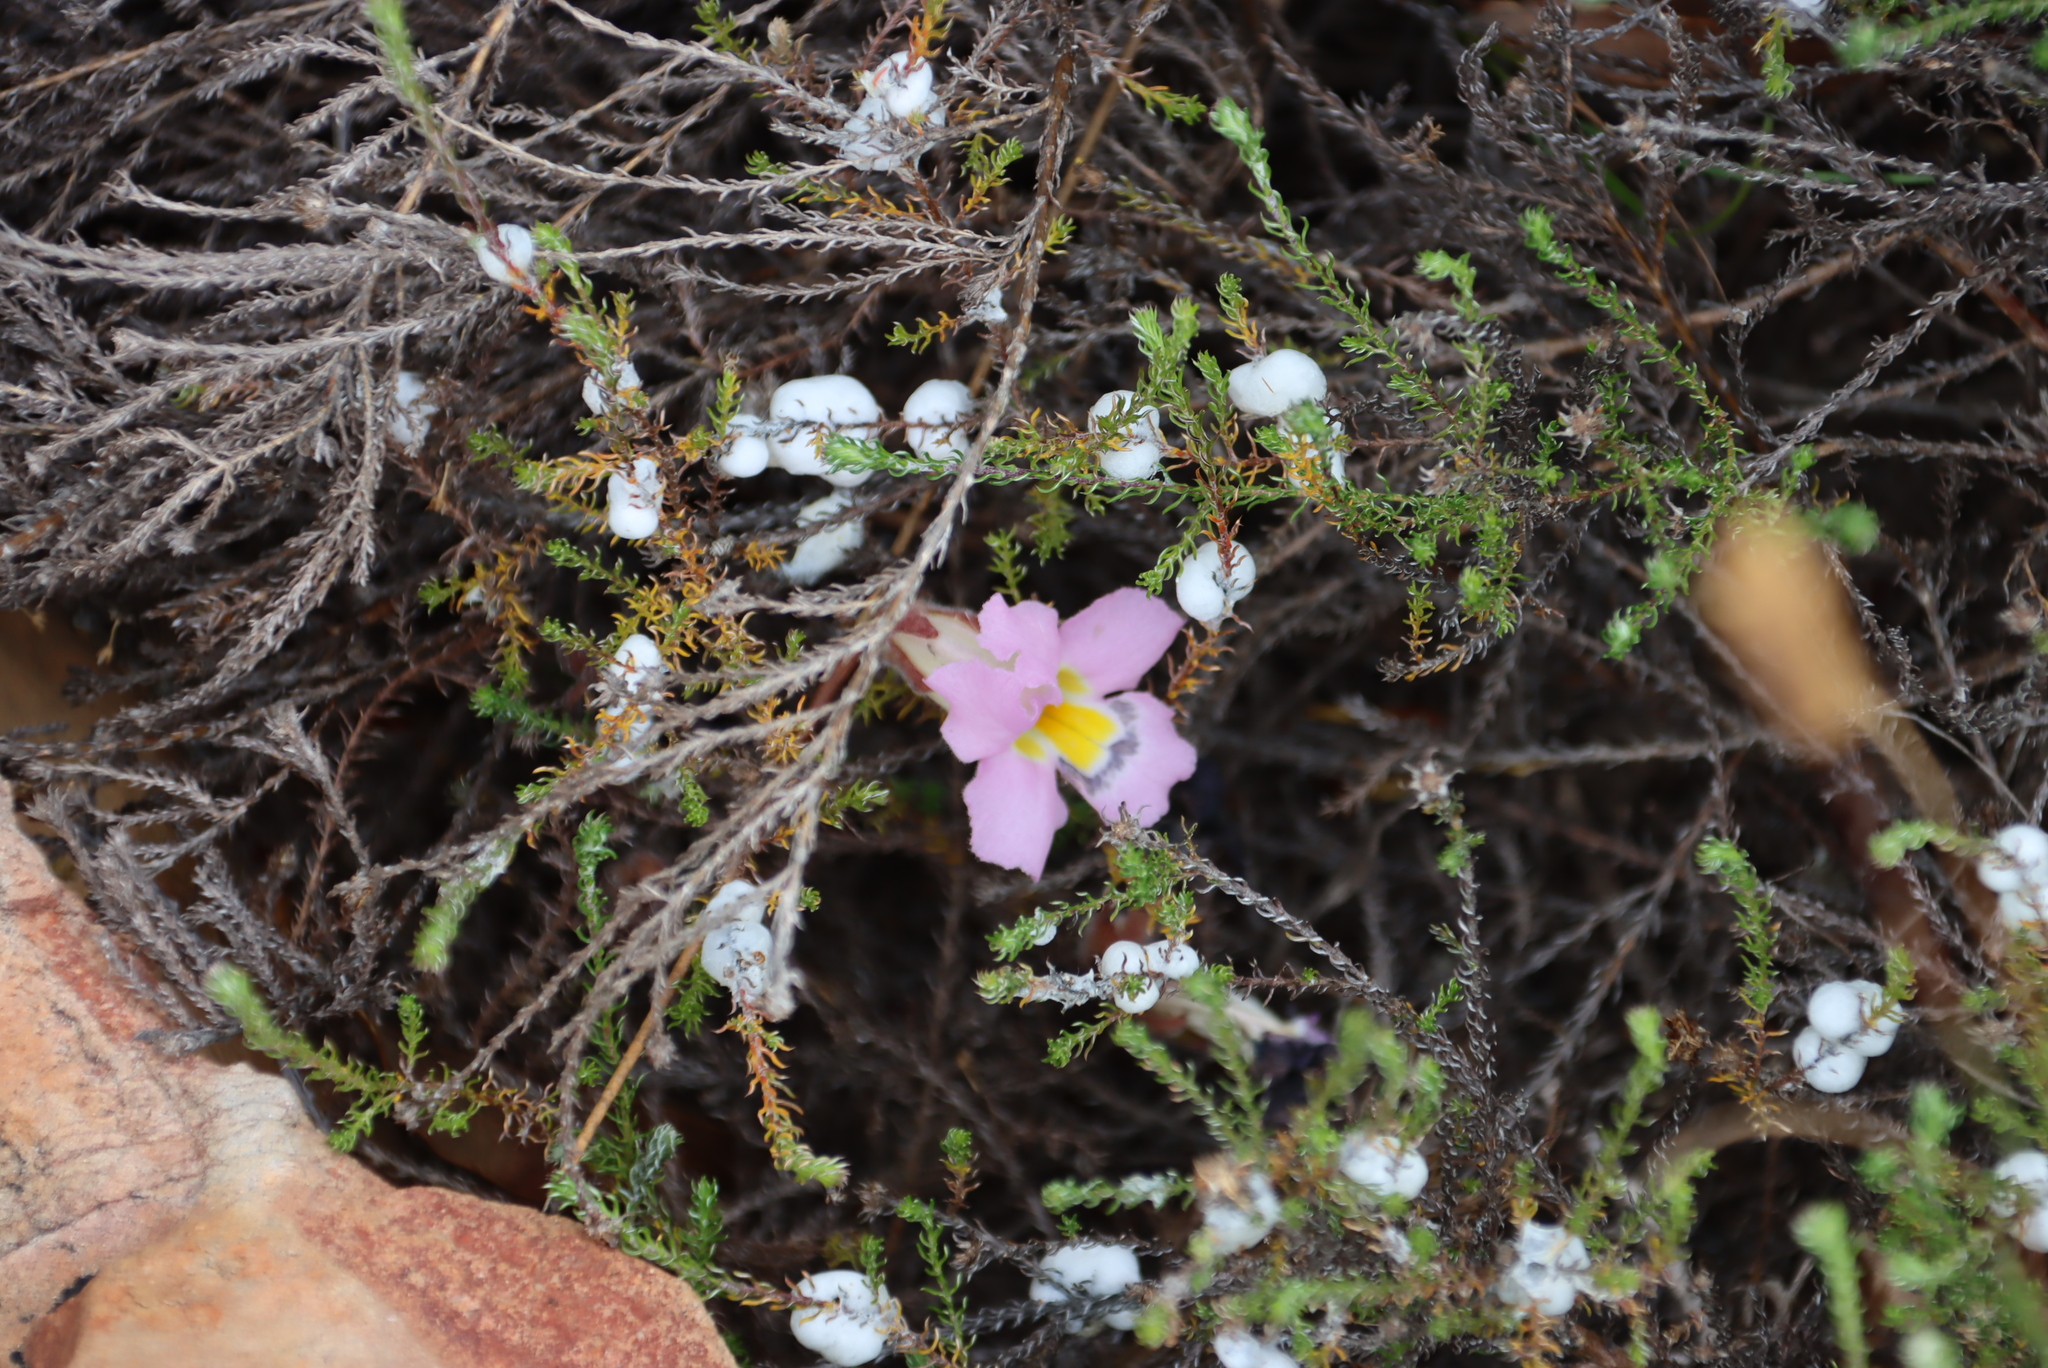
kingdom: Plantae
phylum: Tracheophyta
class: Magnoliopsida
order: Lamiales
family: Orobanchaceae
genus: Harveya
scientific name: Harveya purpurea
